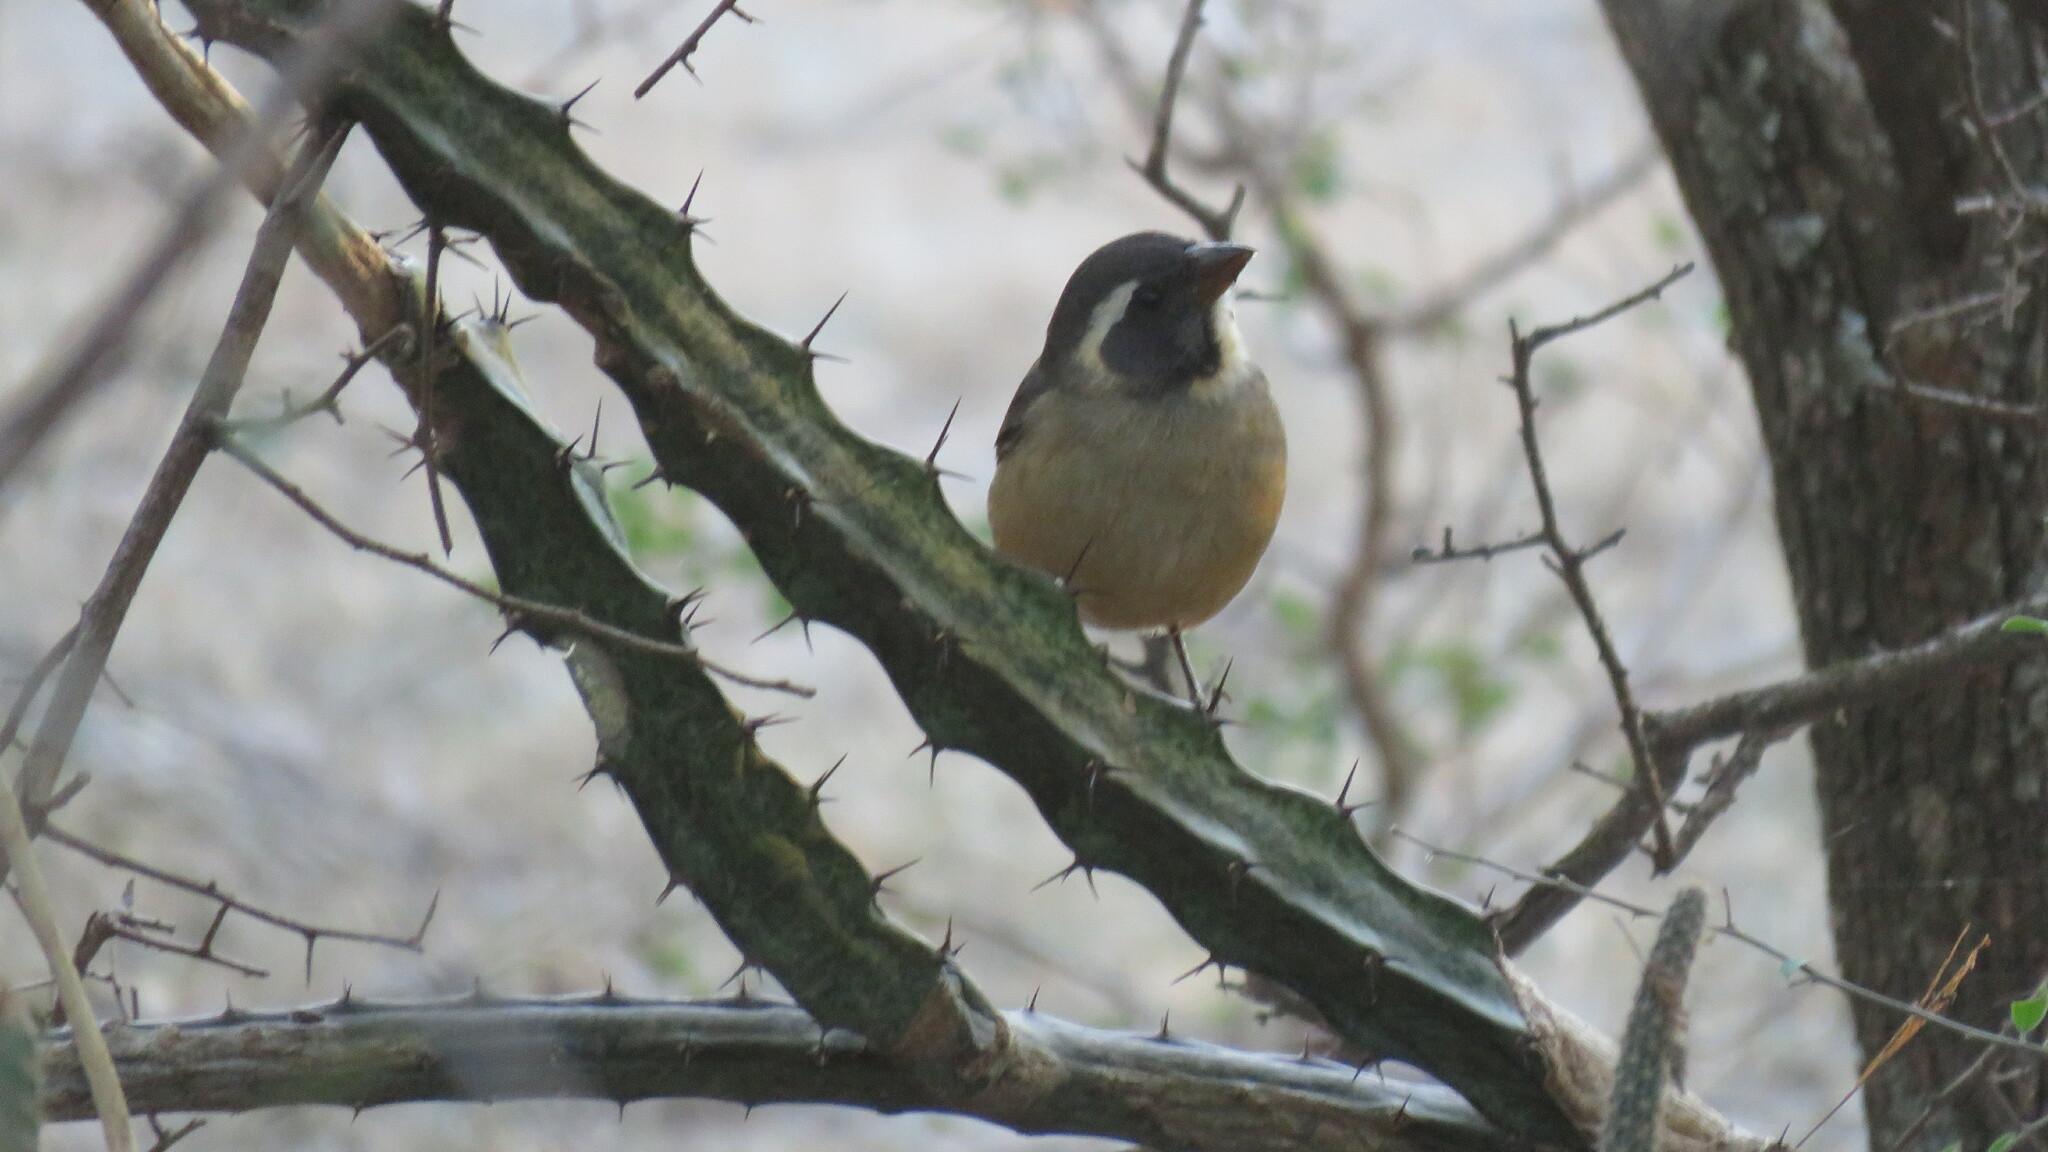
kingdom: Animalia
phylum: Chordata
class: Aves
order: Passeriformes
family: Thraupidae
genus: Saltator
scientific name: Saltator aurantiirostris
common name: Golden-billed saltator
